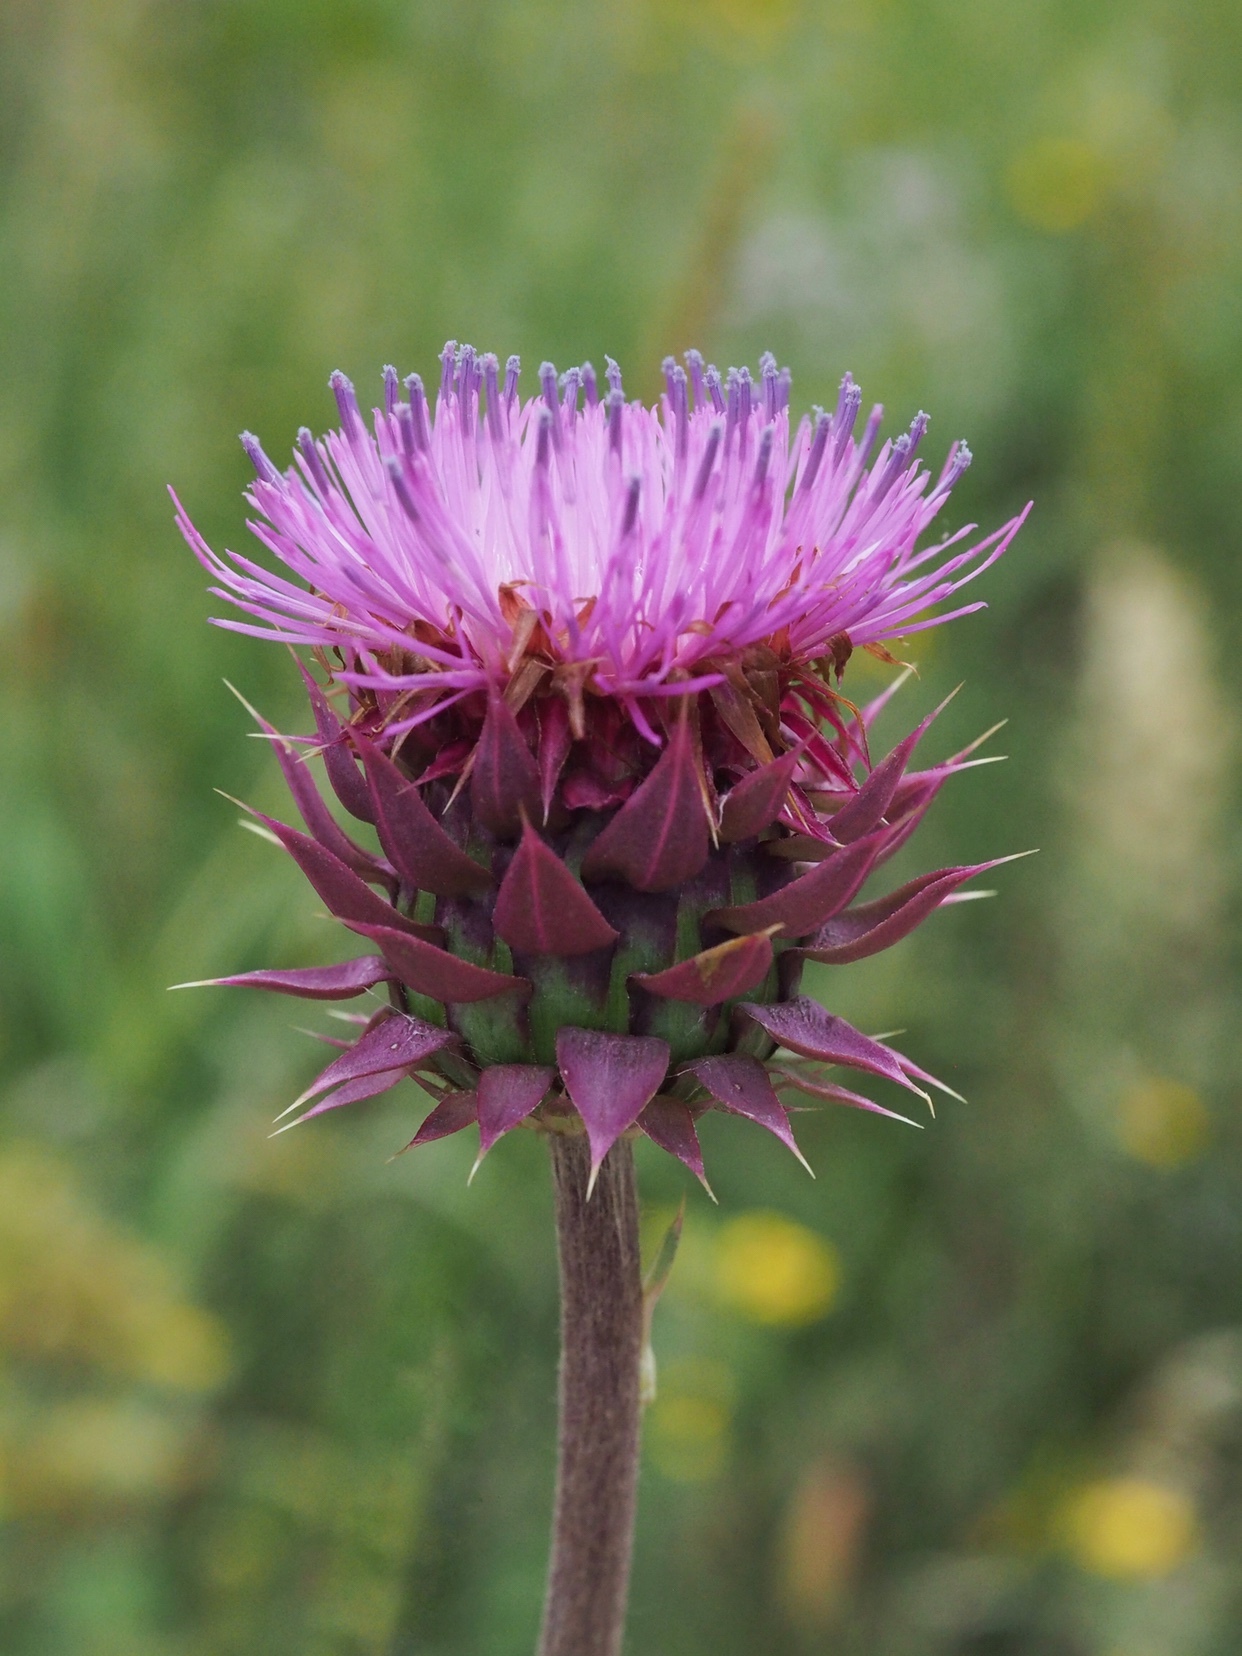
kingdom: Plantae
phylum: Tracheophyta
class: Magnoliopsida
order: Asterales
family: Asteraceae
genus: Carduus
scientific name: Carduus nutans
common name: Musk thistle
